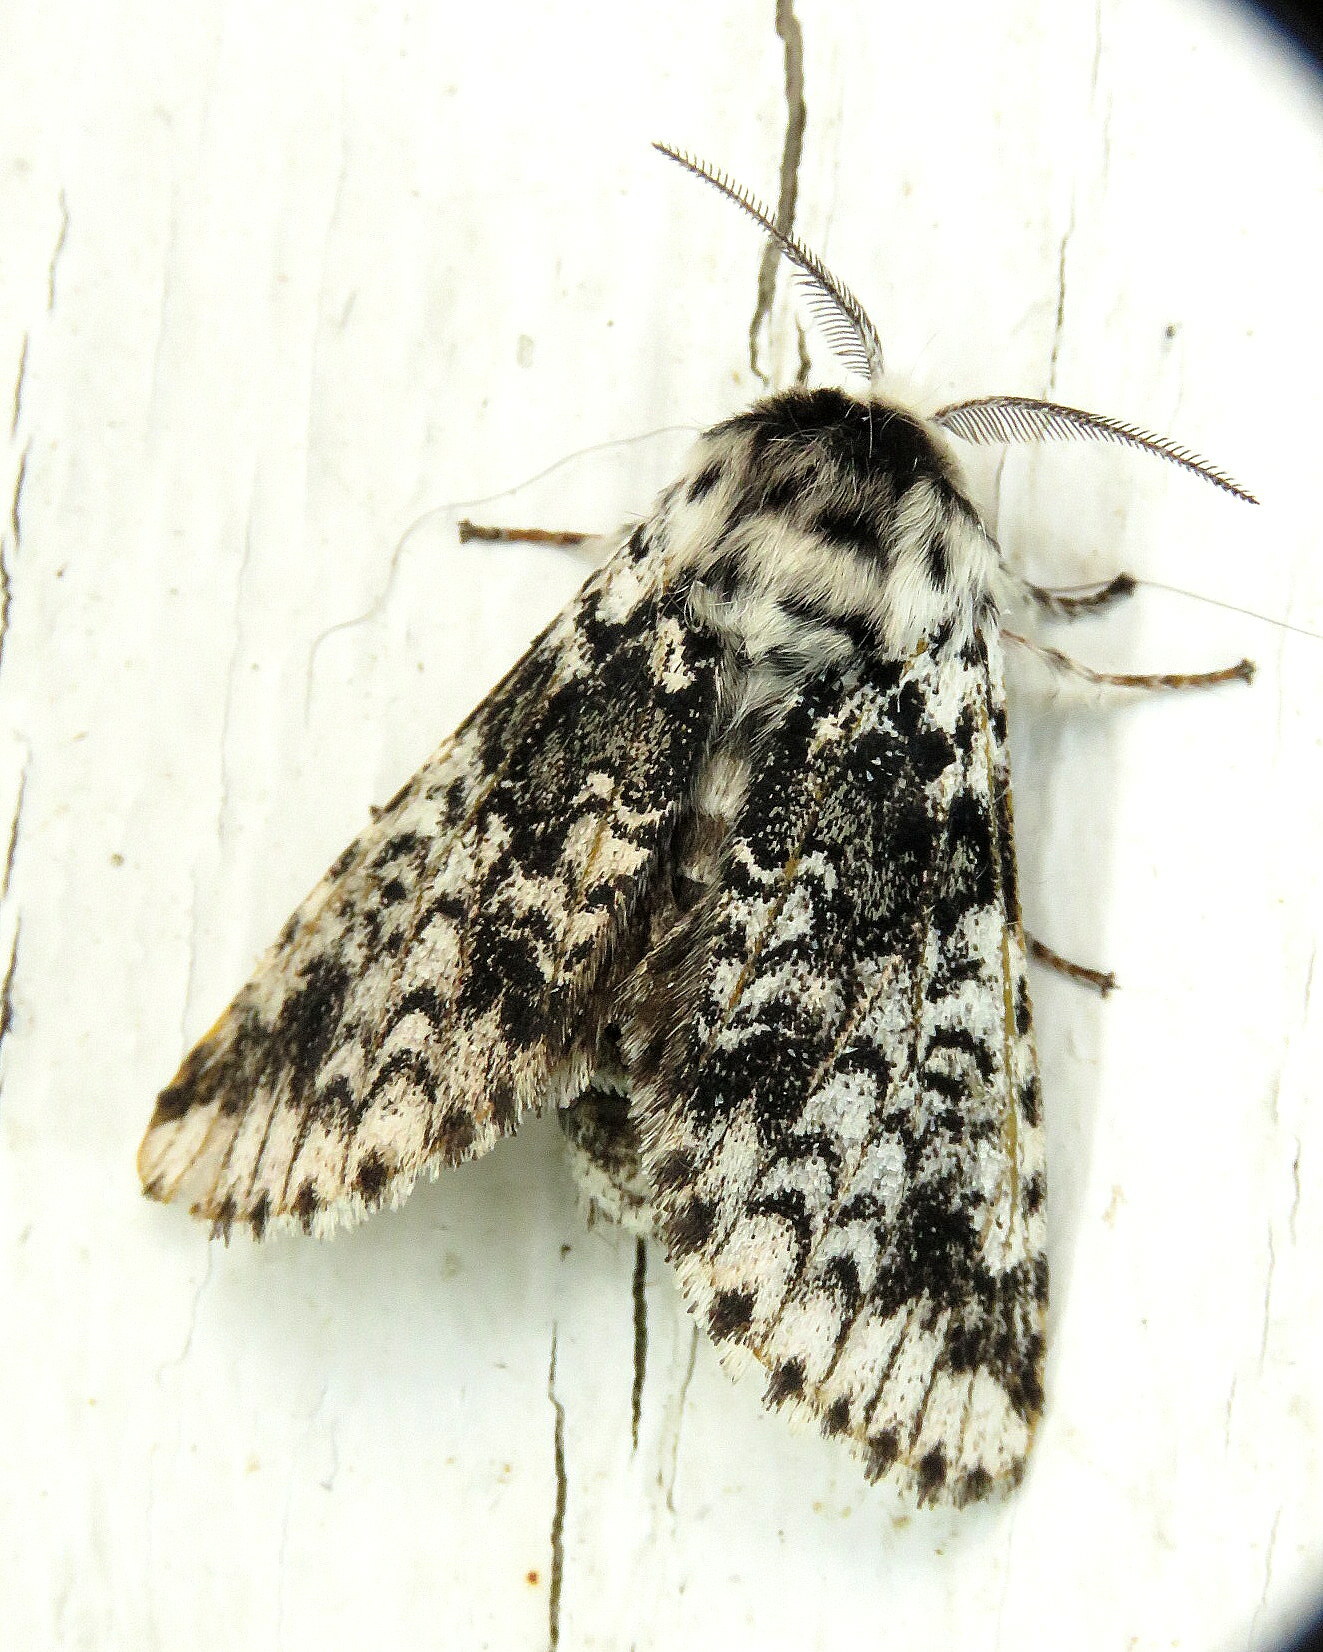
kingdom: Animalia
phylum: Arthropoda
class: Insecta
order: Lepidoptera
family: Notodontidae
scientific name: Notodontidae
